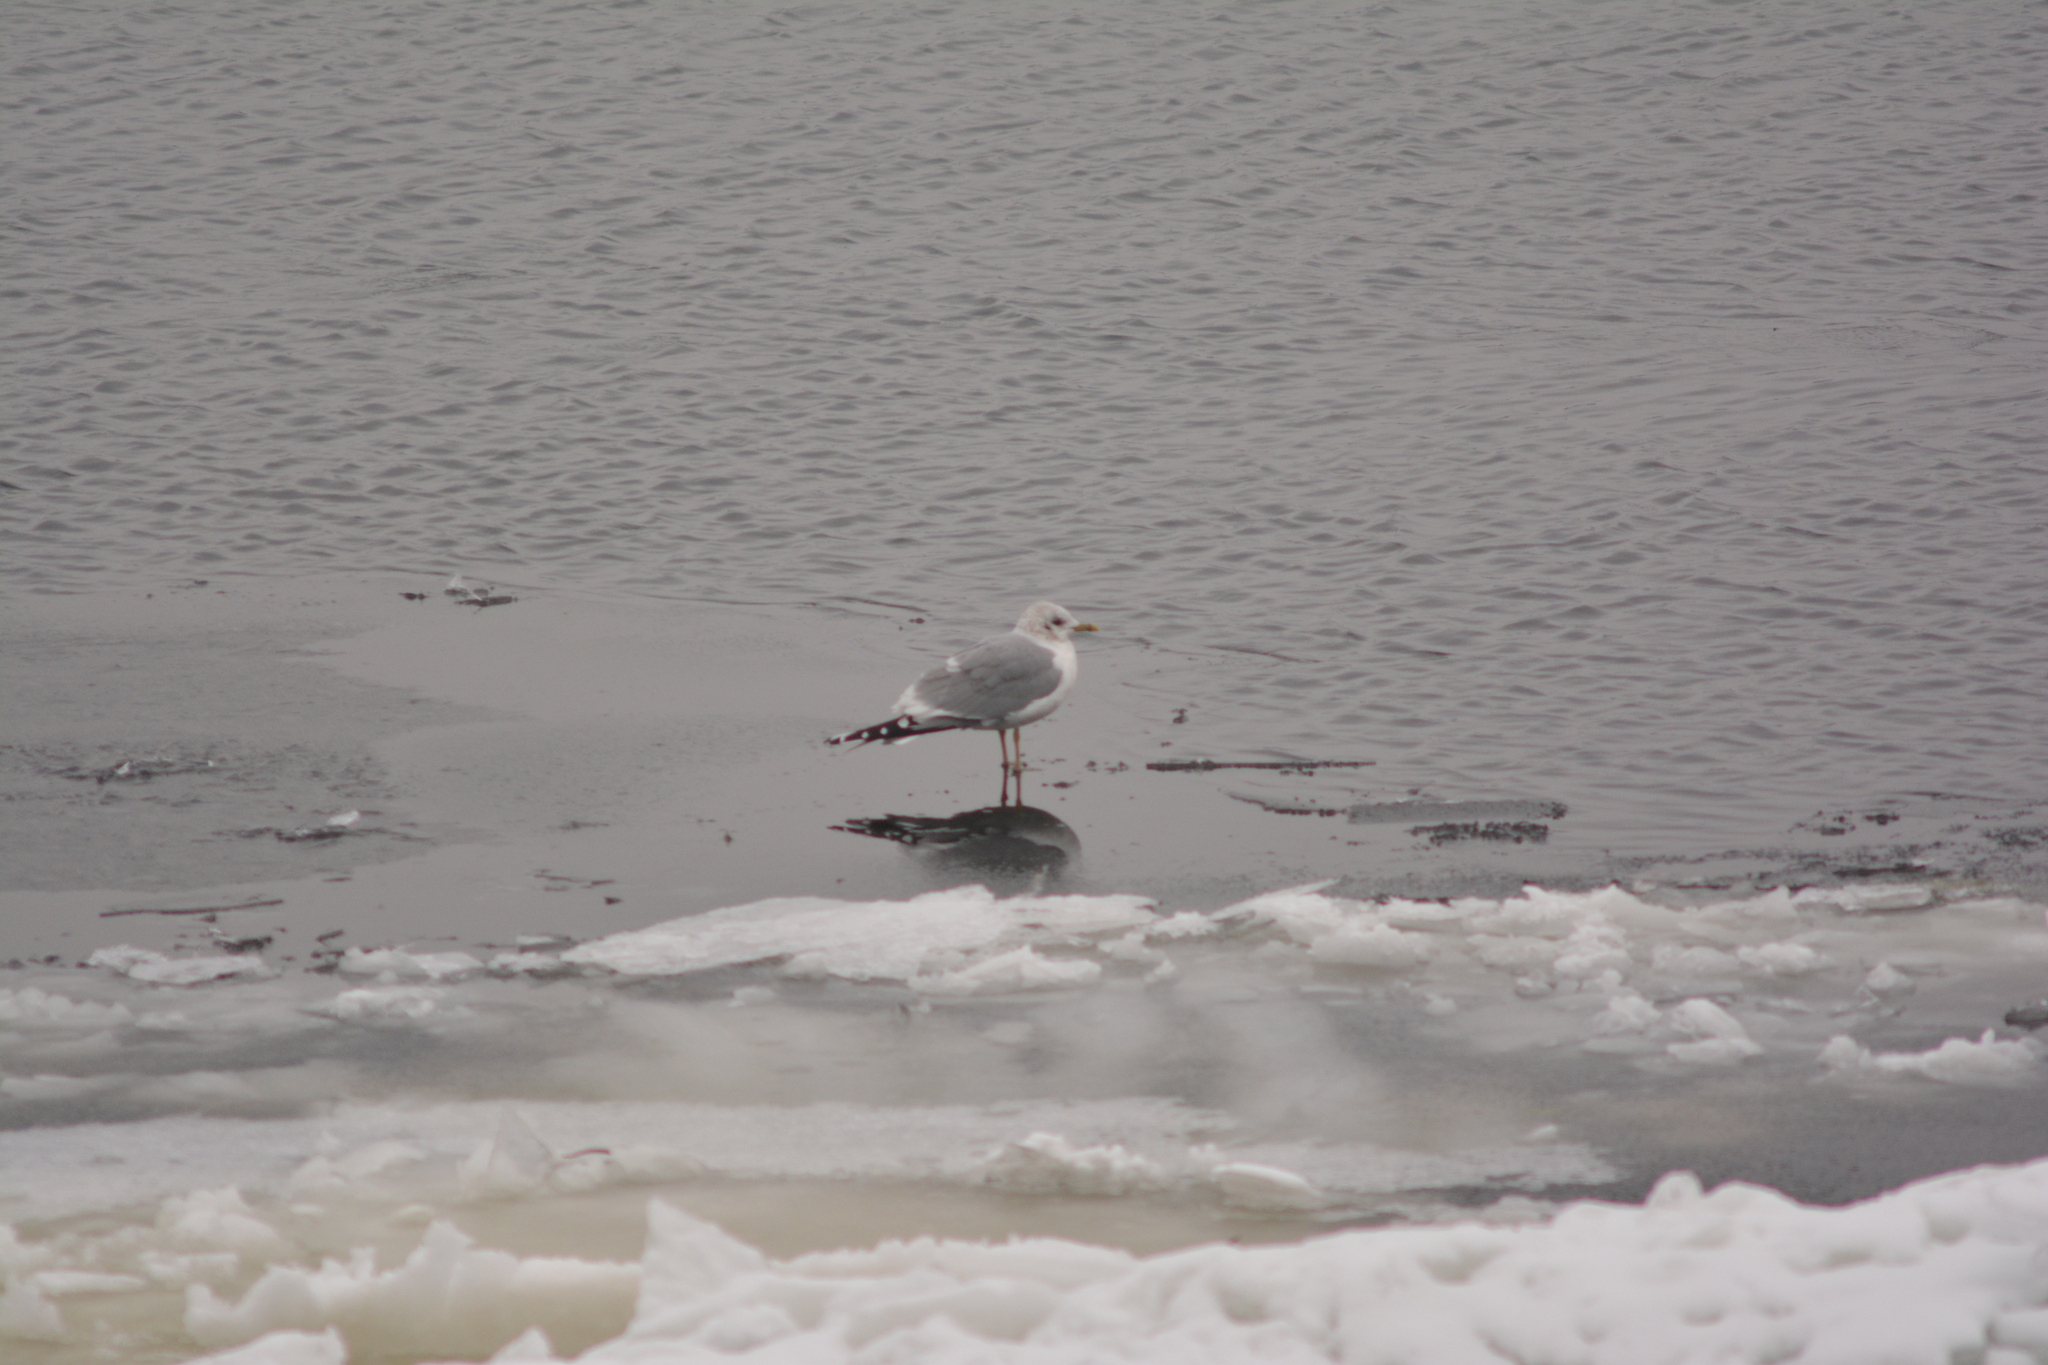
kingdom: Animalia
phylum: Chordata
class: Aves
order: Charadriiformes
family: Laridae
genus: Larus
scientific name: Larus canus
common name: Mew gull
